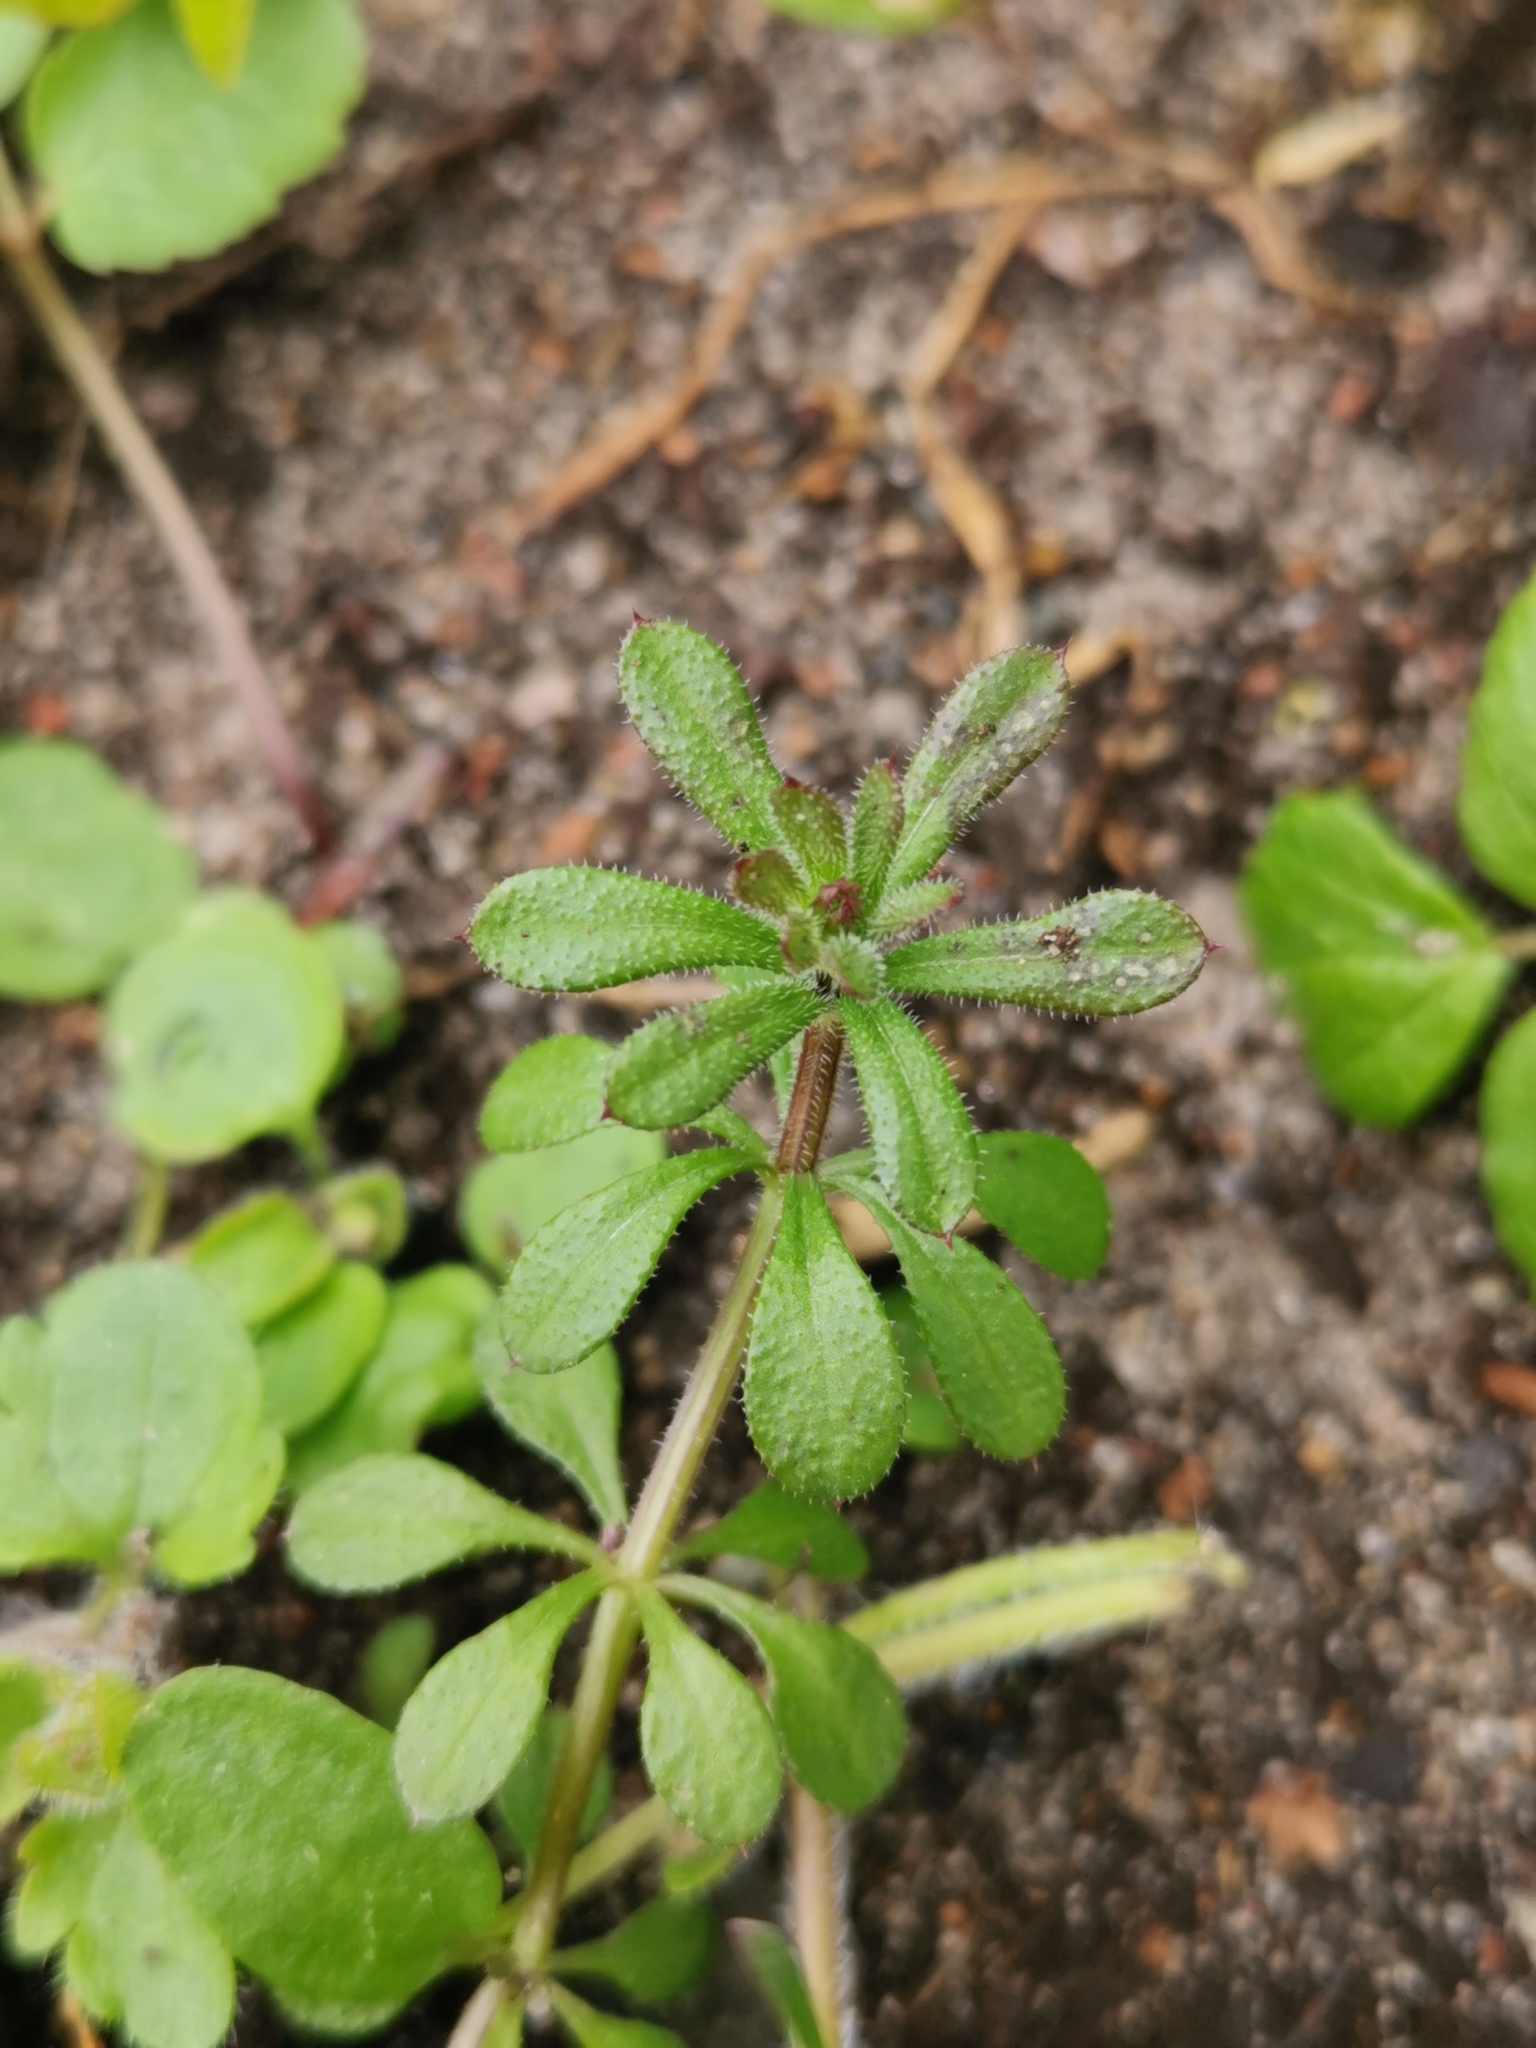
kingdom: Plantae
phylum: Tracheophyta
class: Magnoliopsida
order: Gentianales
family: Rubiaceae
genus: Galium
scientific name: Galium aparine
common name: Cleavers
